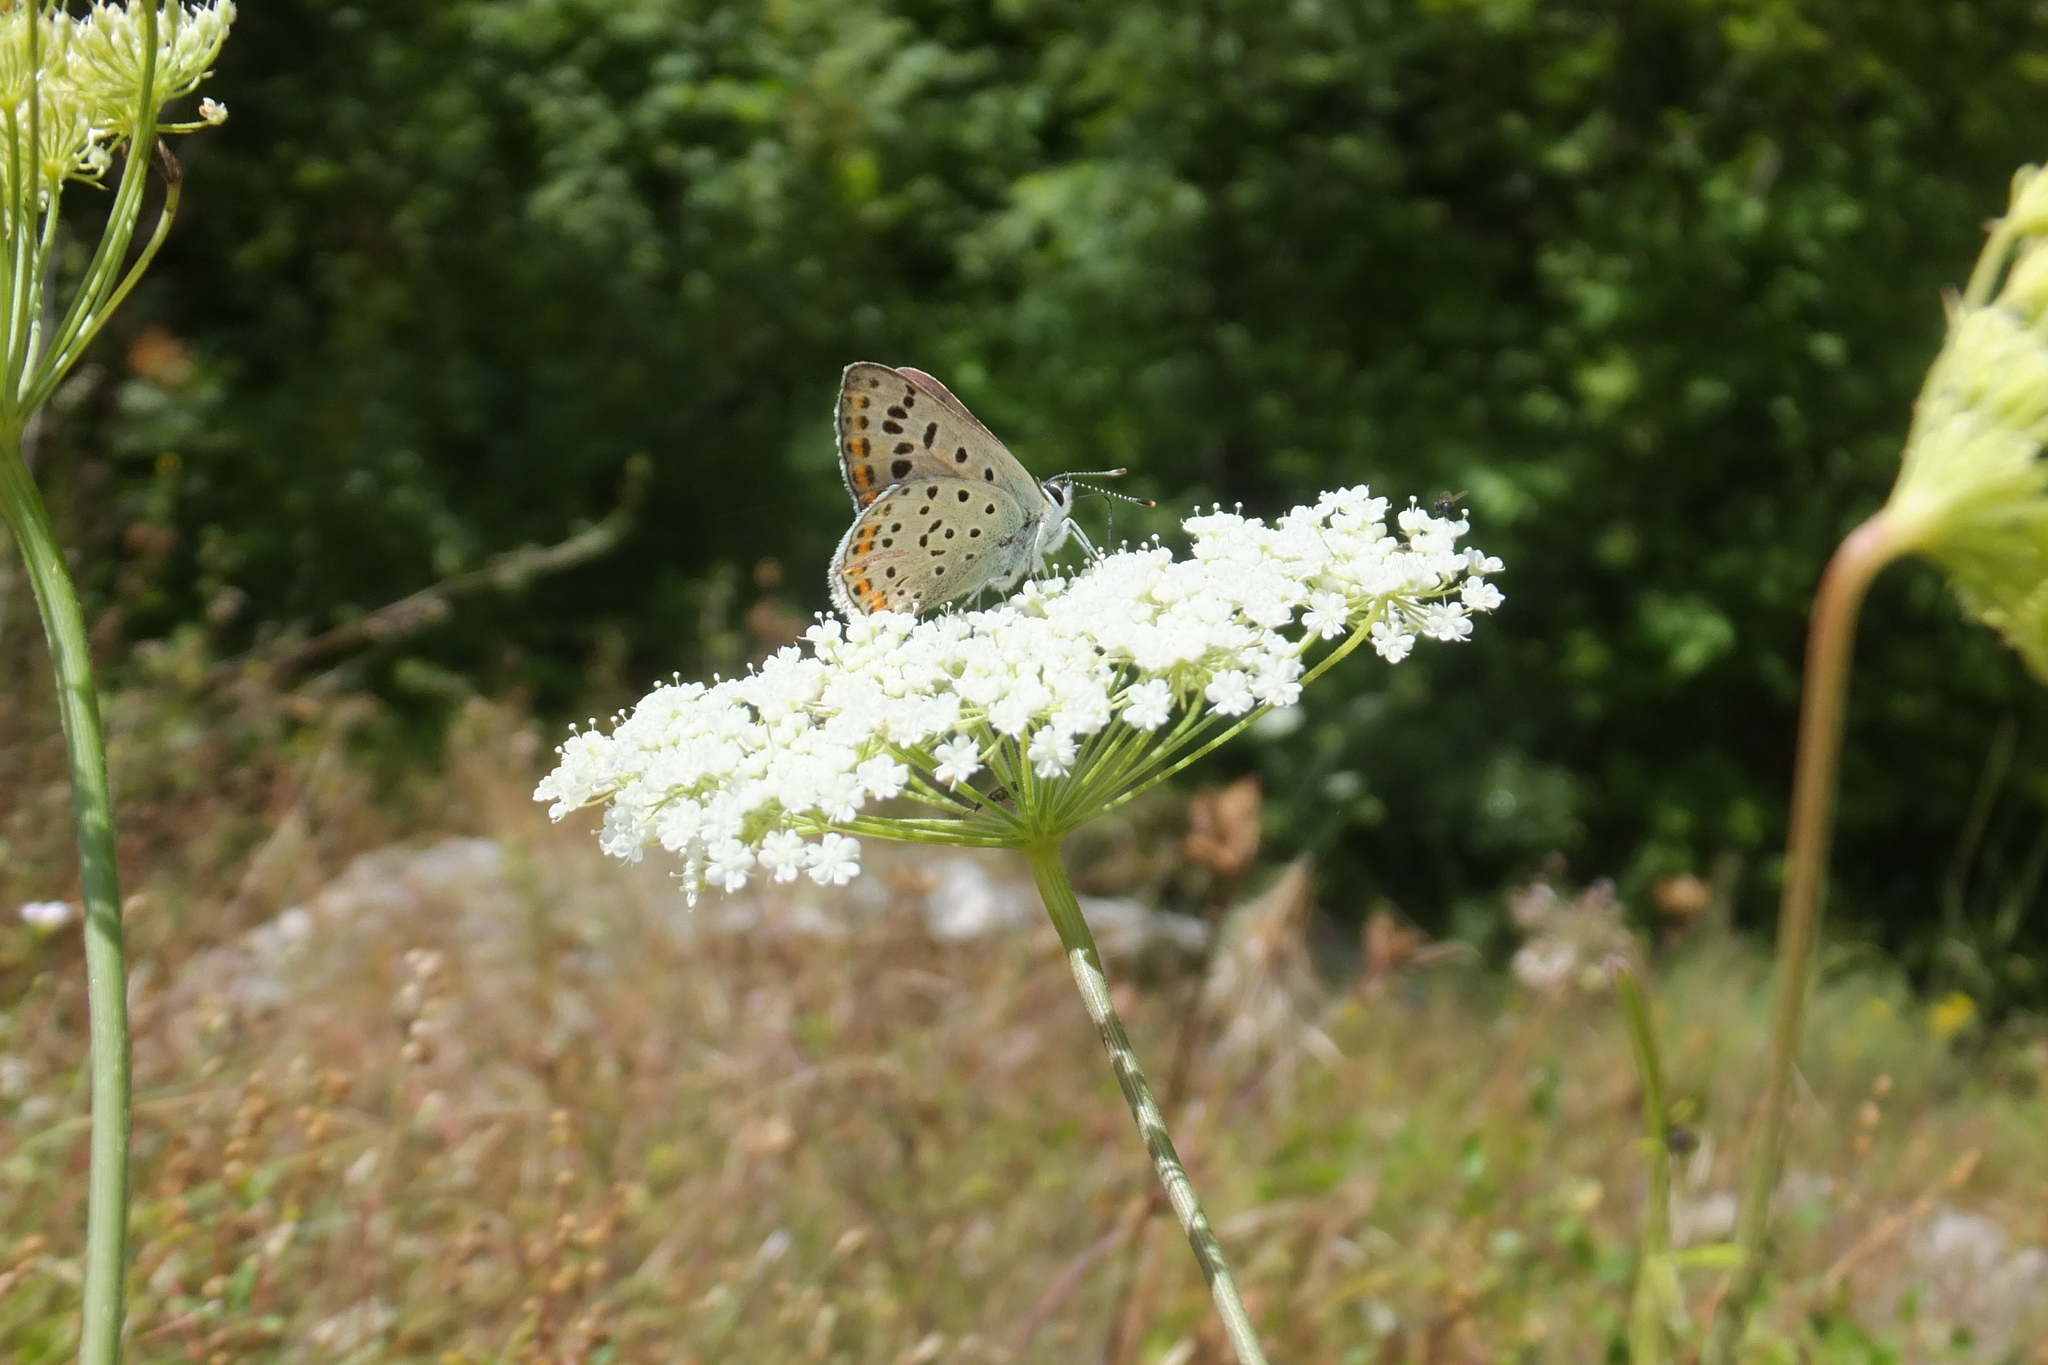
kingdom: Animalia
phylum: Arthropoda
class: Insecta
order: Lepidoptera
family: Lycaenidae
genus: Loweia
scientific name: Loweia tityrus
